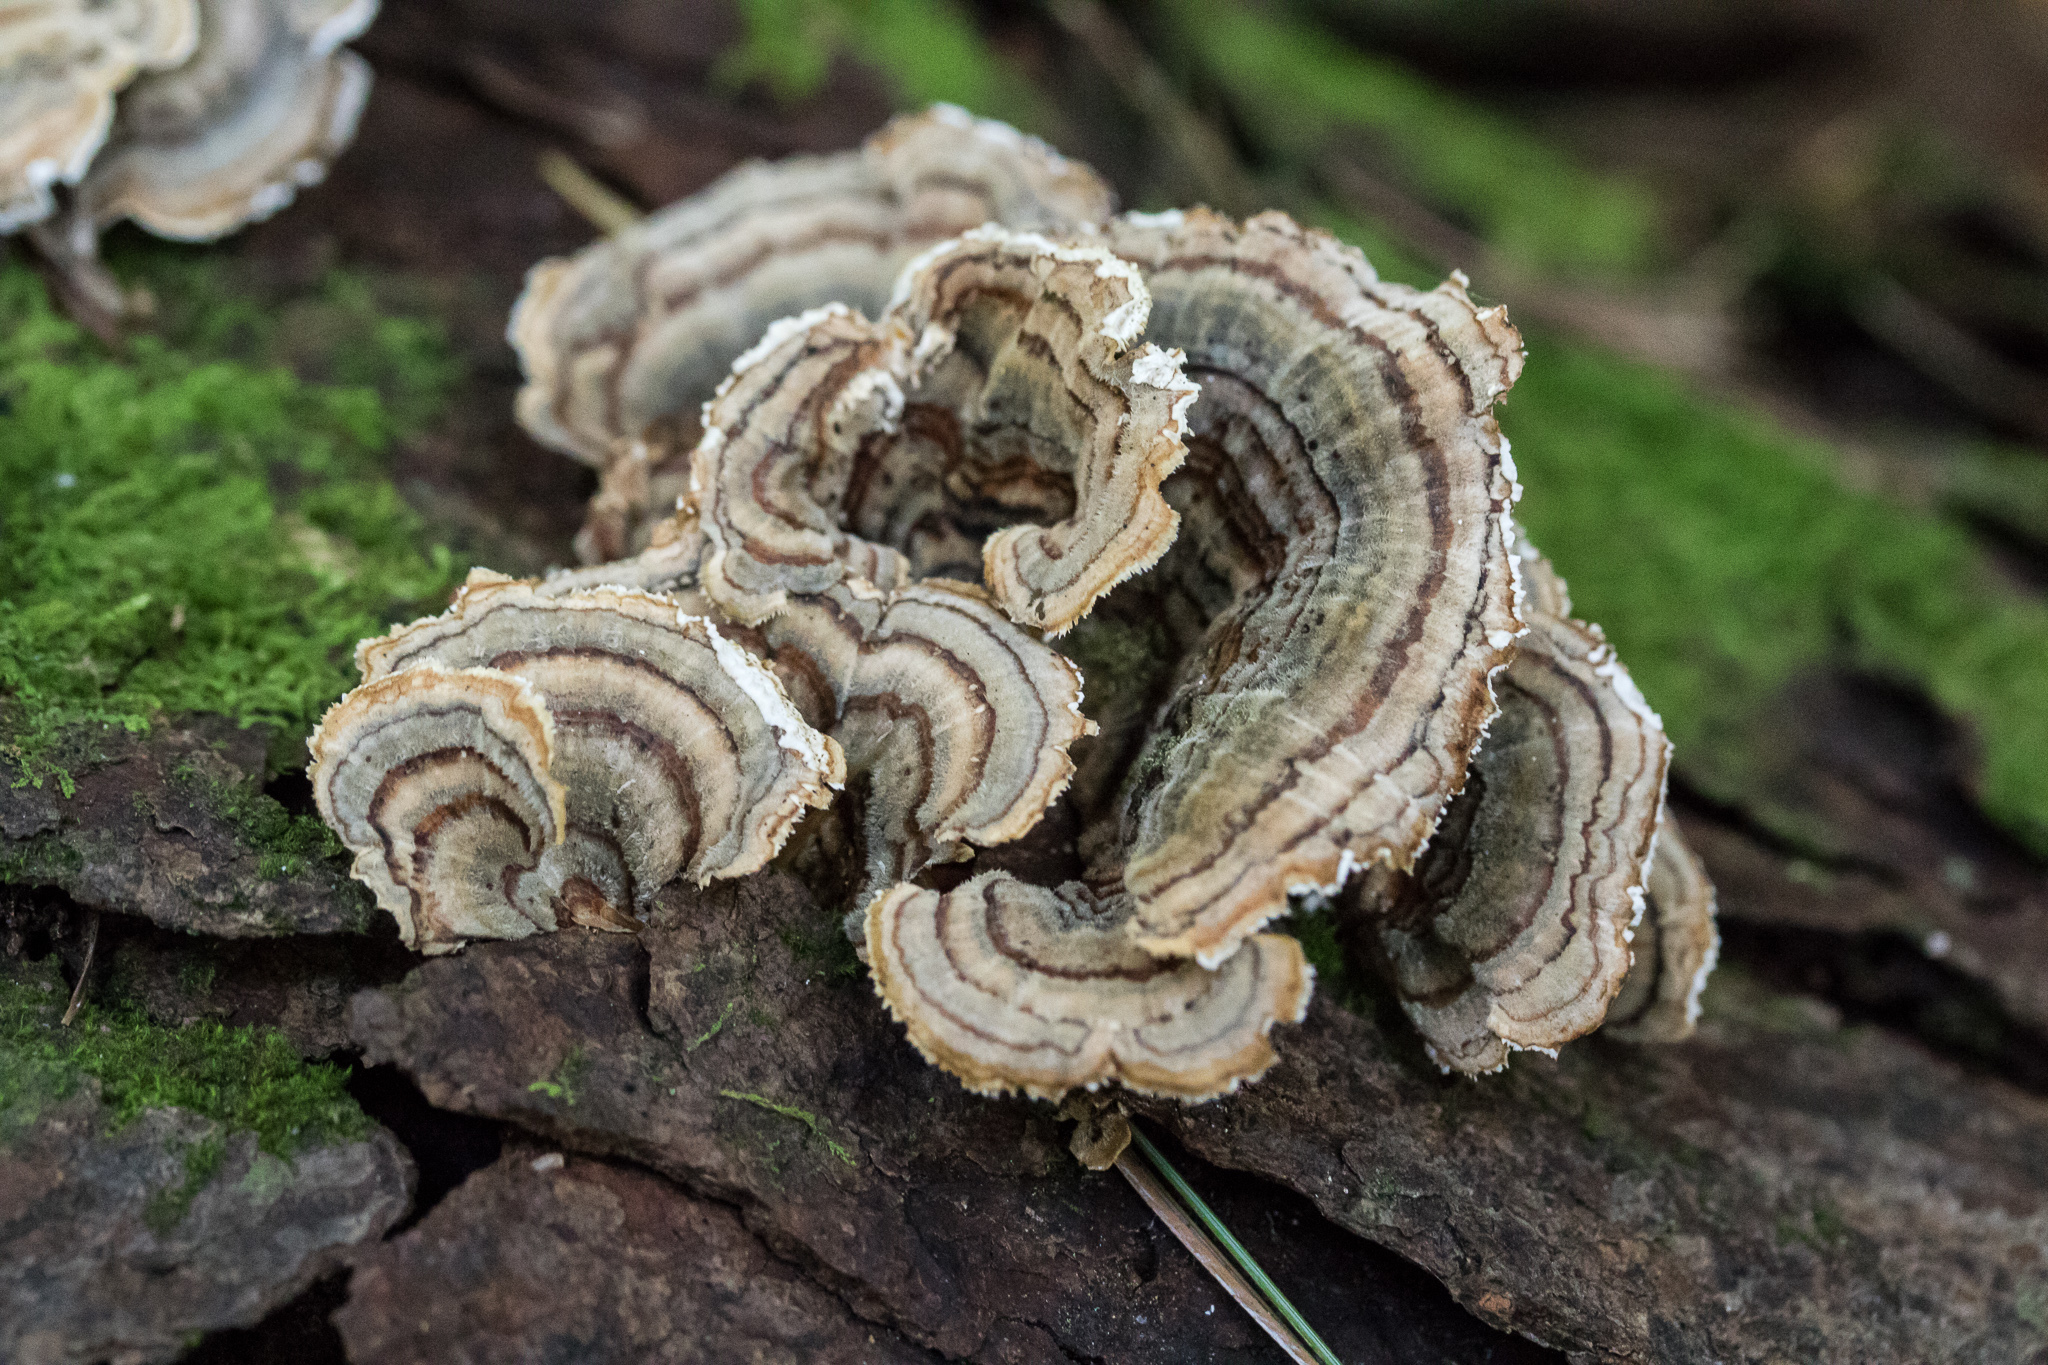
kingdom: Fungi
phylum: Basidiomycota
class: Agaricomycetes
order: Polyporales
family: Polyporaceae
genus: Trametes
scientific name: Trametes versicolor
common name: Turkeytail
